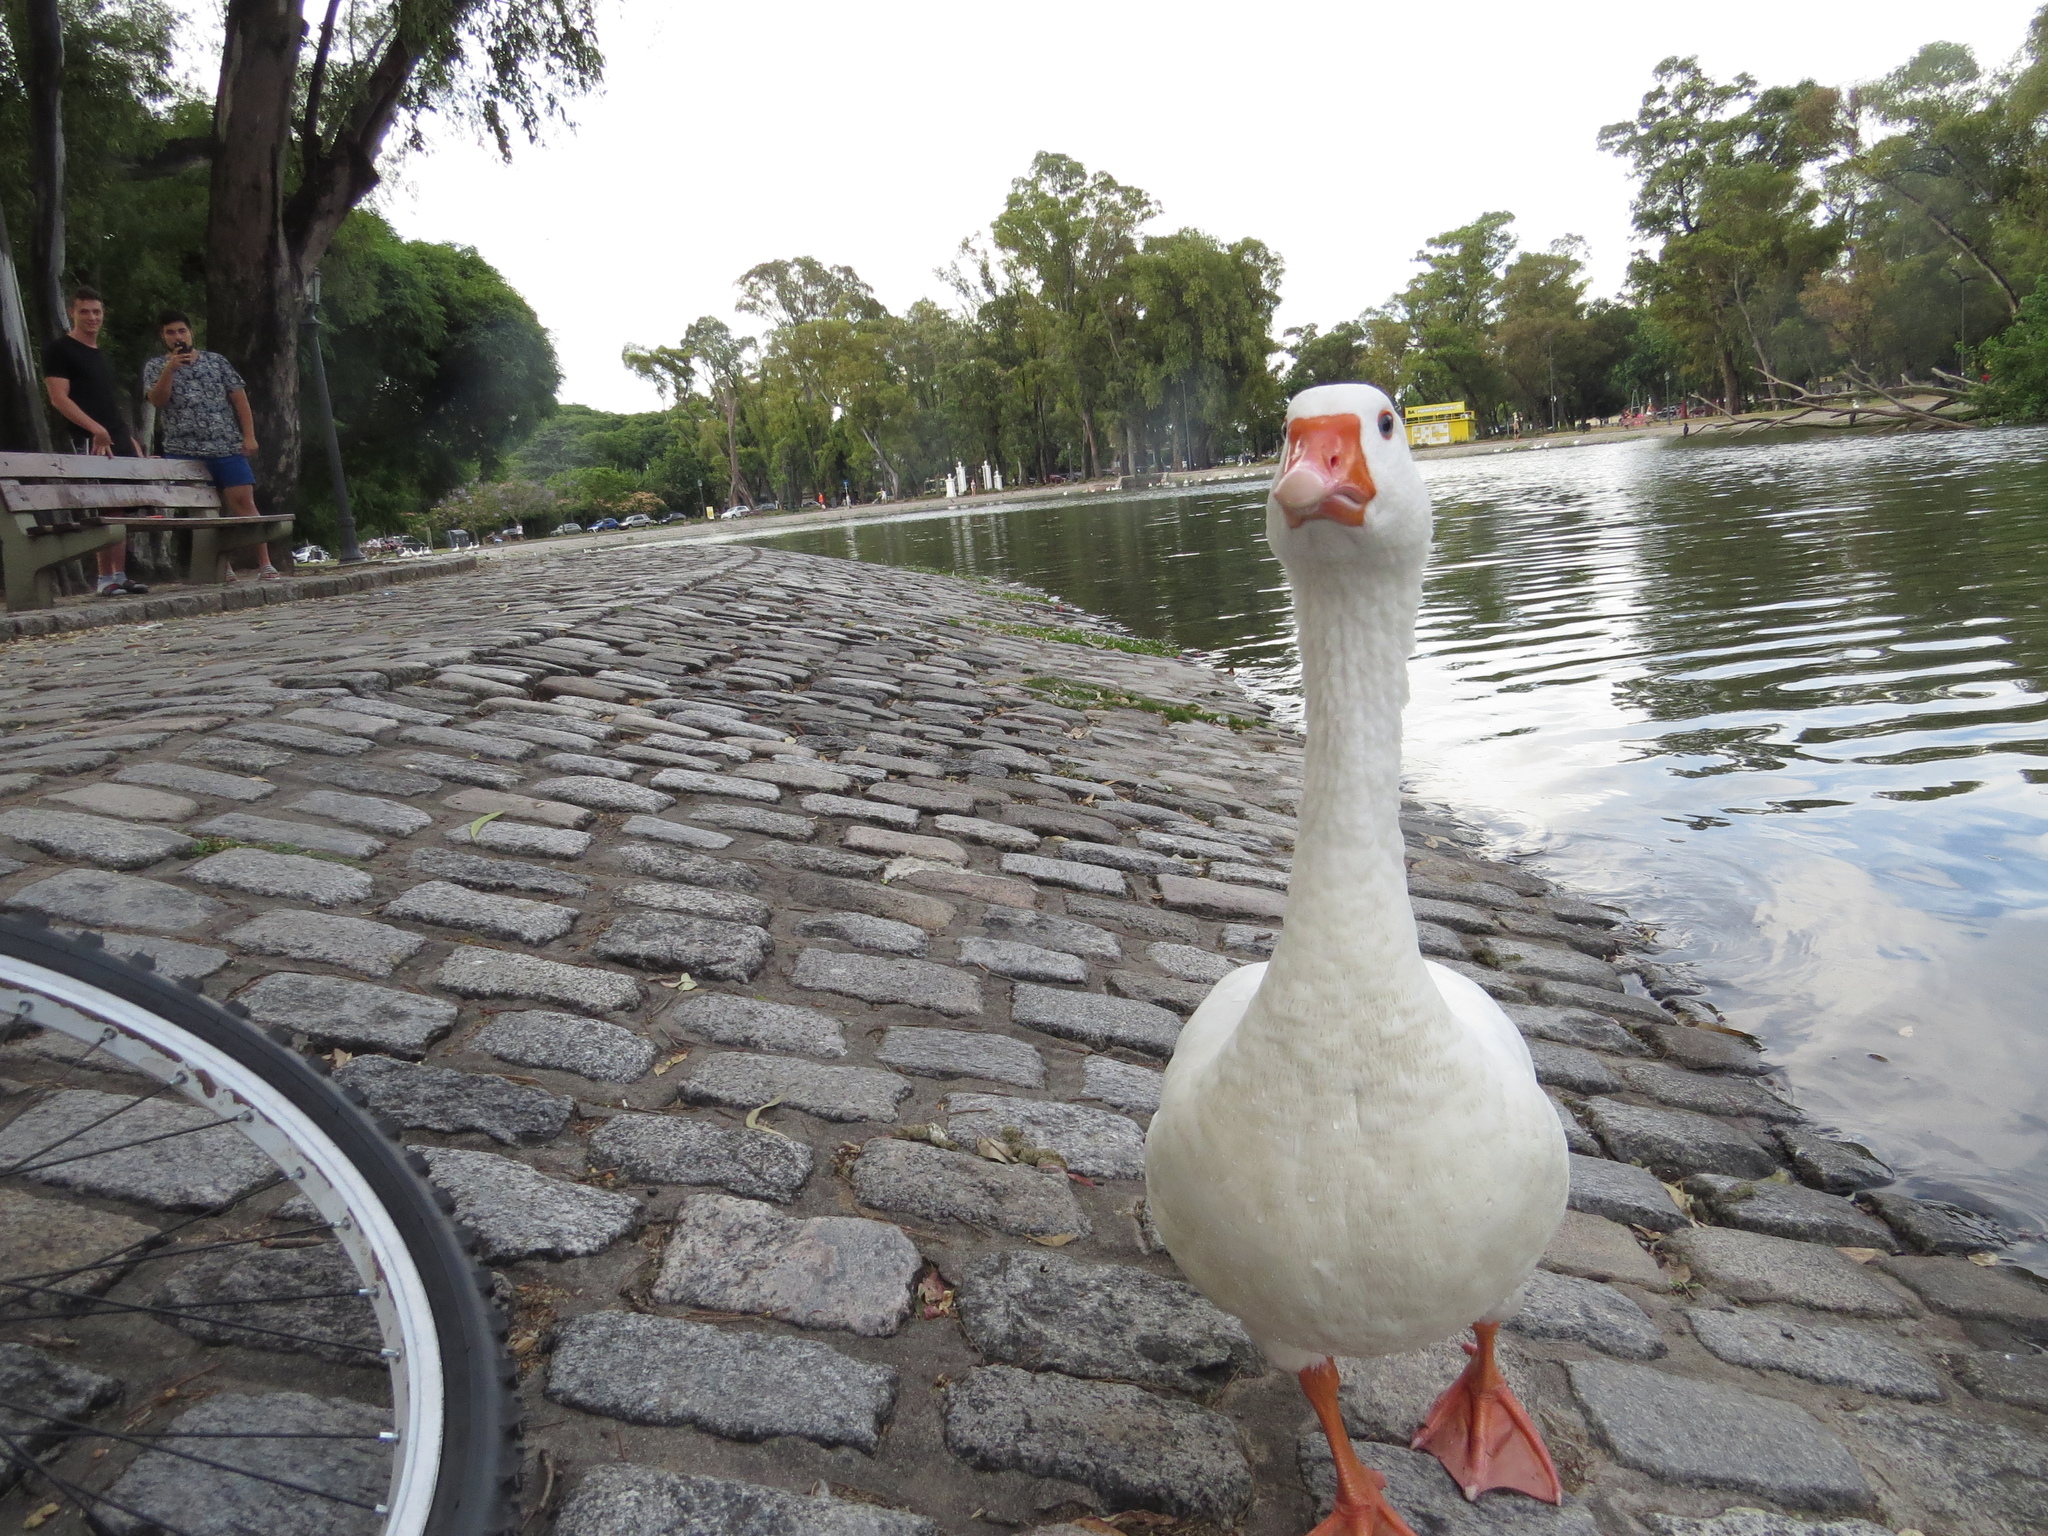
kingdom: Animalia
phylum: Chordata
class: Aves
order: Anseriformes
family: Anatidae
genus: Anser
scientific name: Anser anser
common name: Greylag goose
